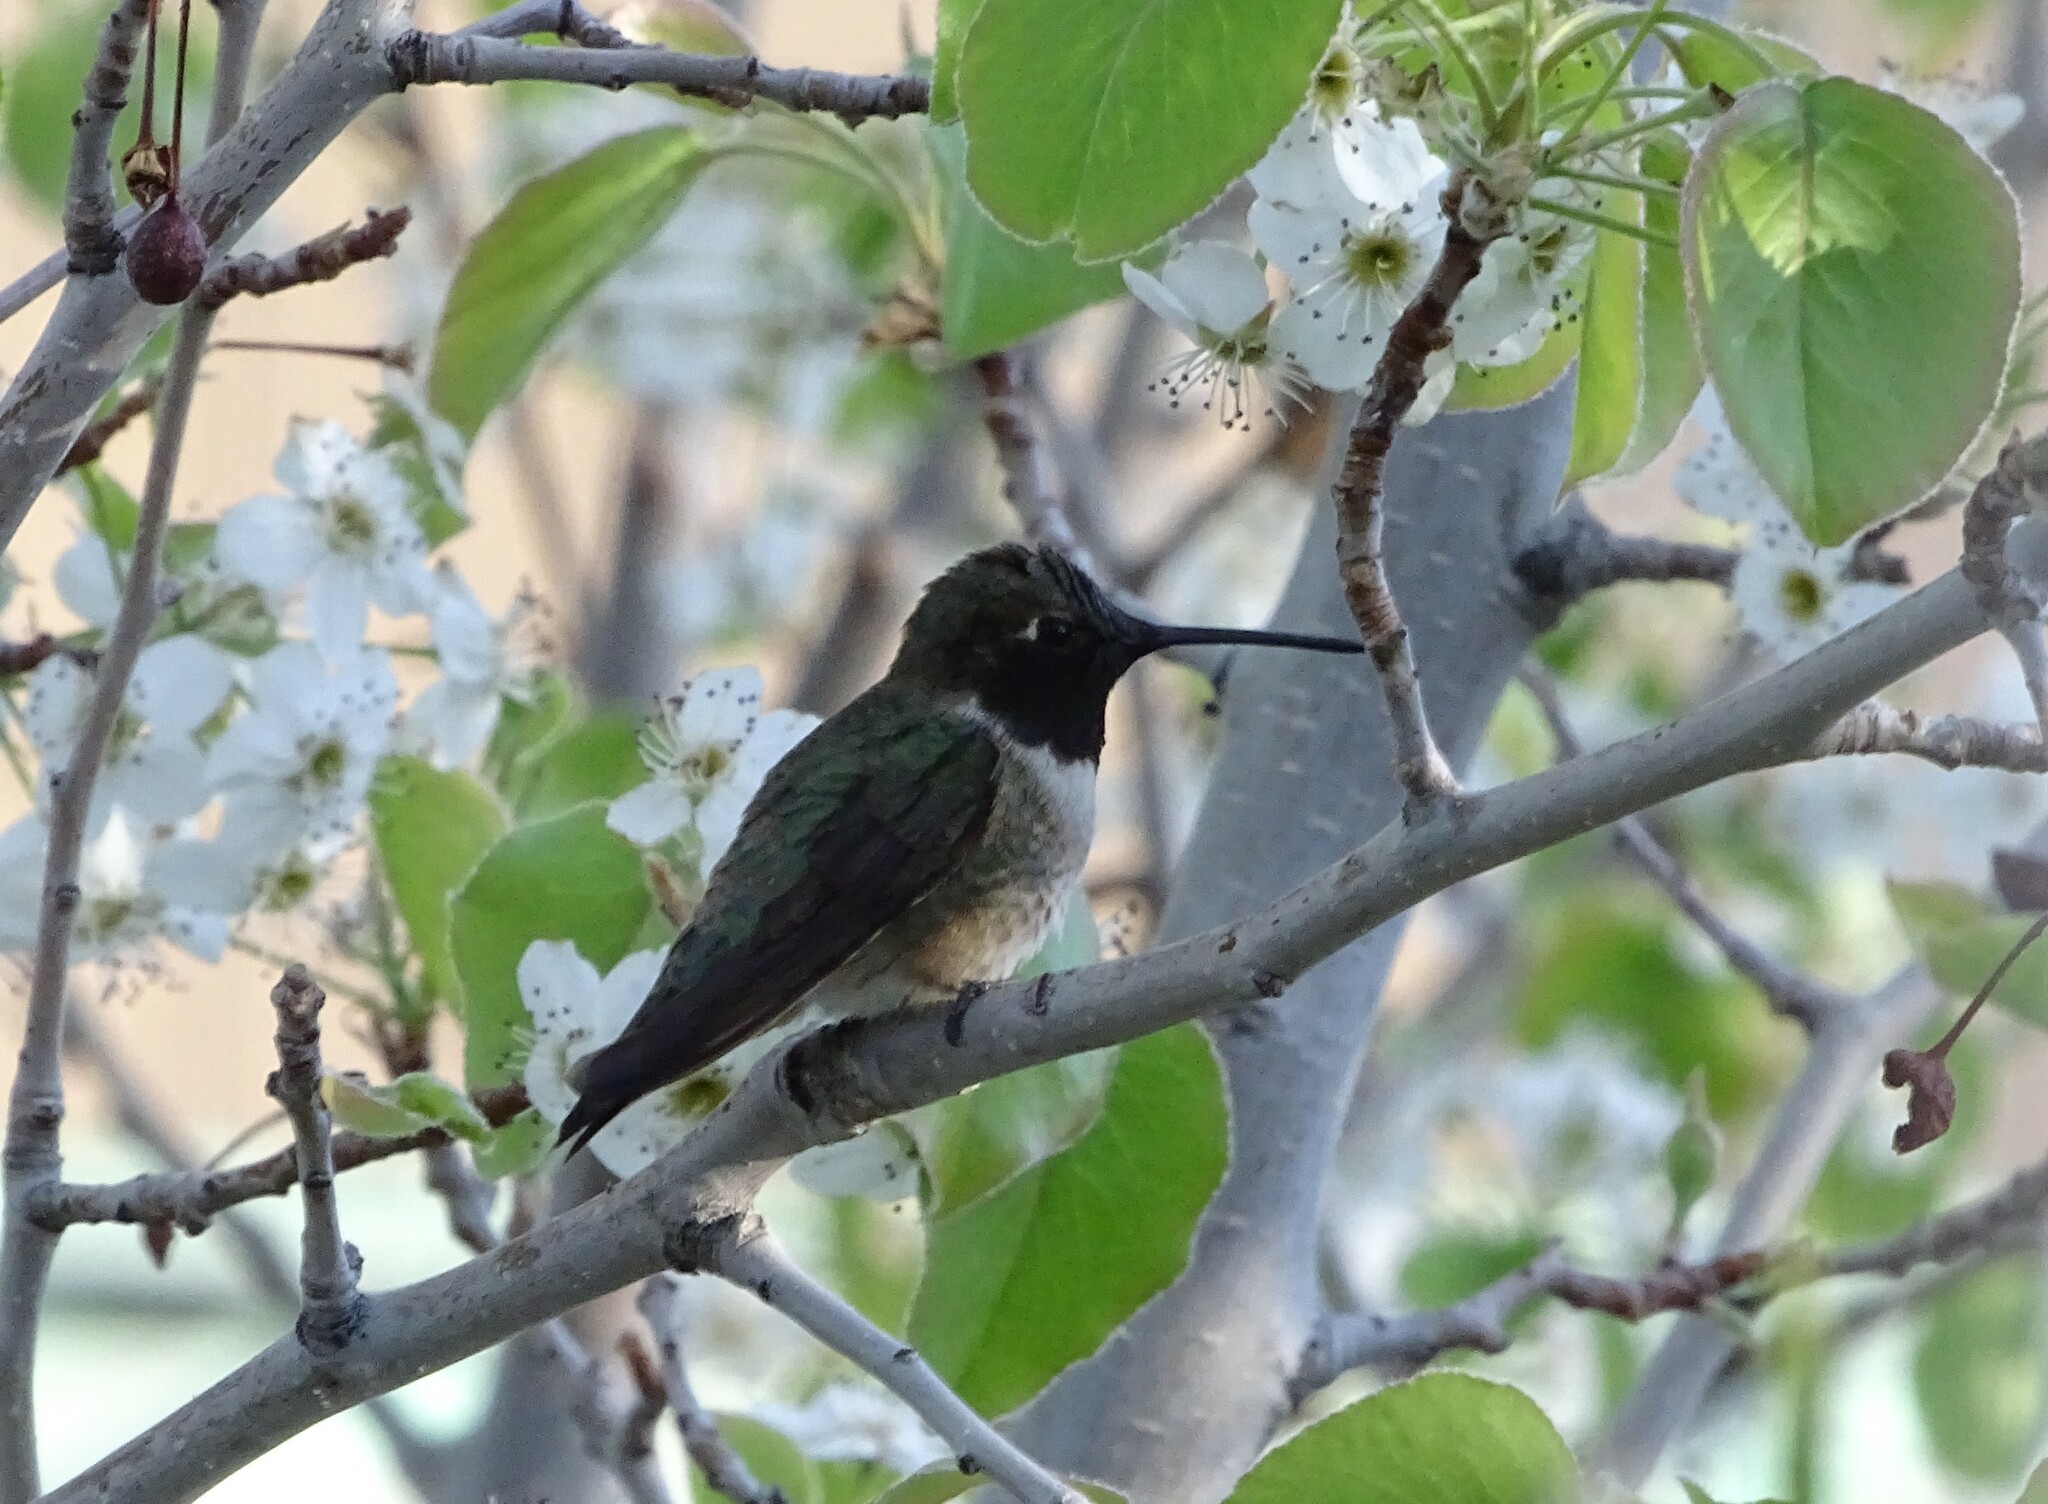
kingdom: Animalia
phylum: Chordata
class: Aves
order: Apodiformes
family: Trochilidae
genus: Archilochus
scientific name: Archilochus alexandri
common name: Black-chinned hummingbird
